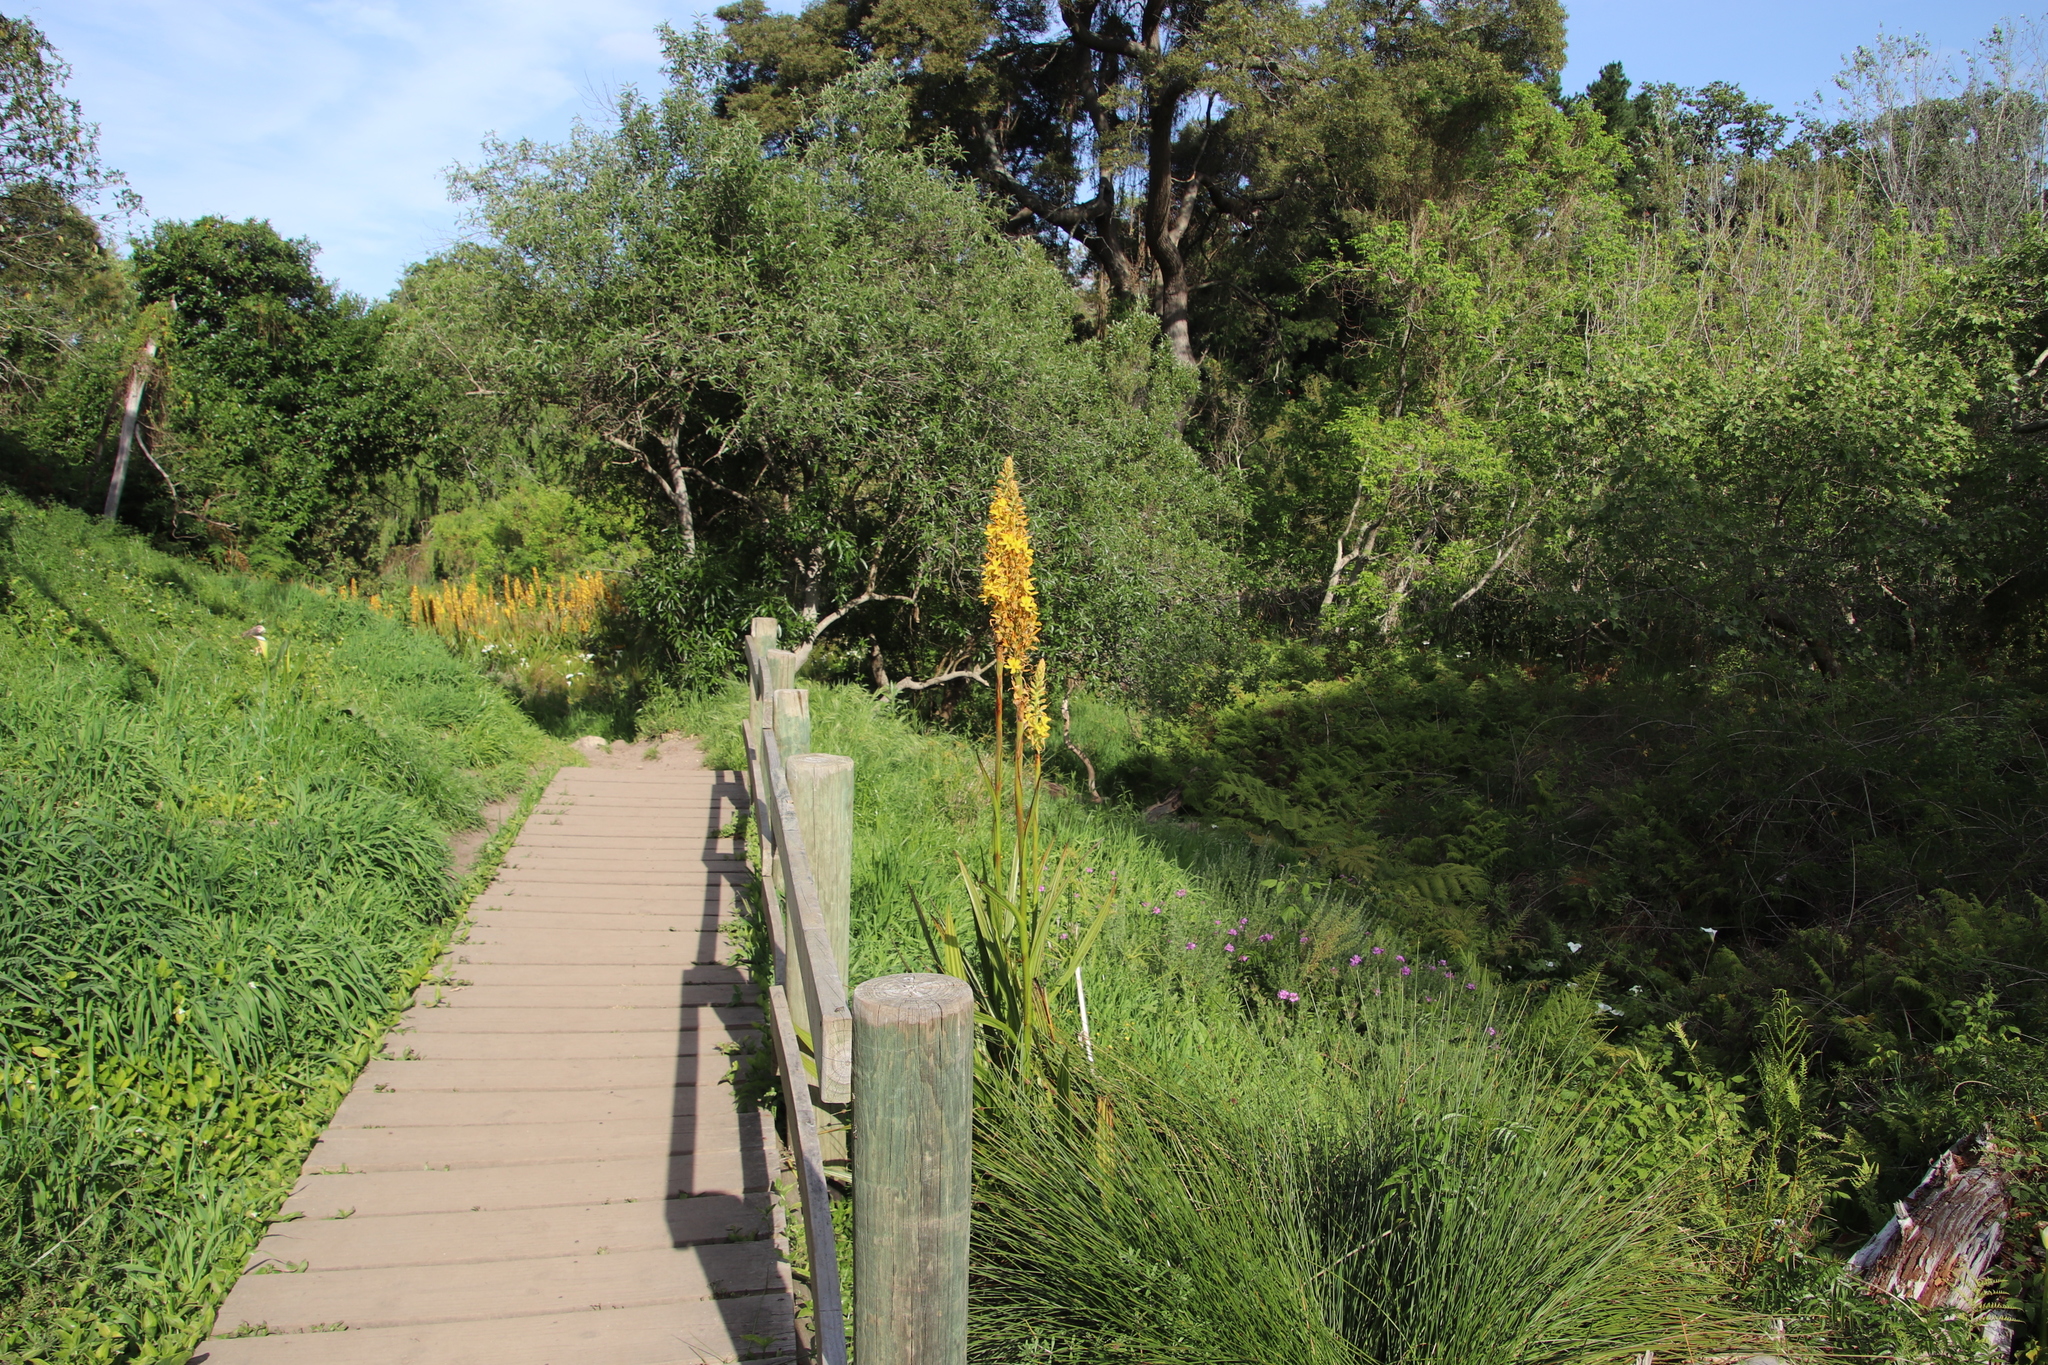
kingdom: Plantae
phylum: Tracheophyta
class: Liliopsida
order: Commelinales
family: Haemodoraceae
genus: Wachendorfia
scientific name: Wachendorfia thyrsiflora
